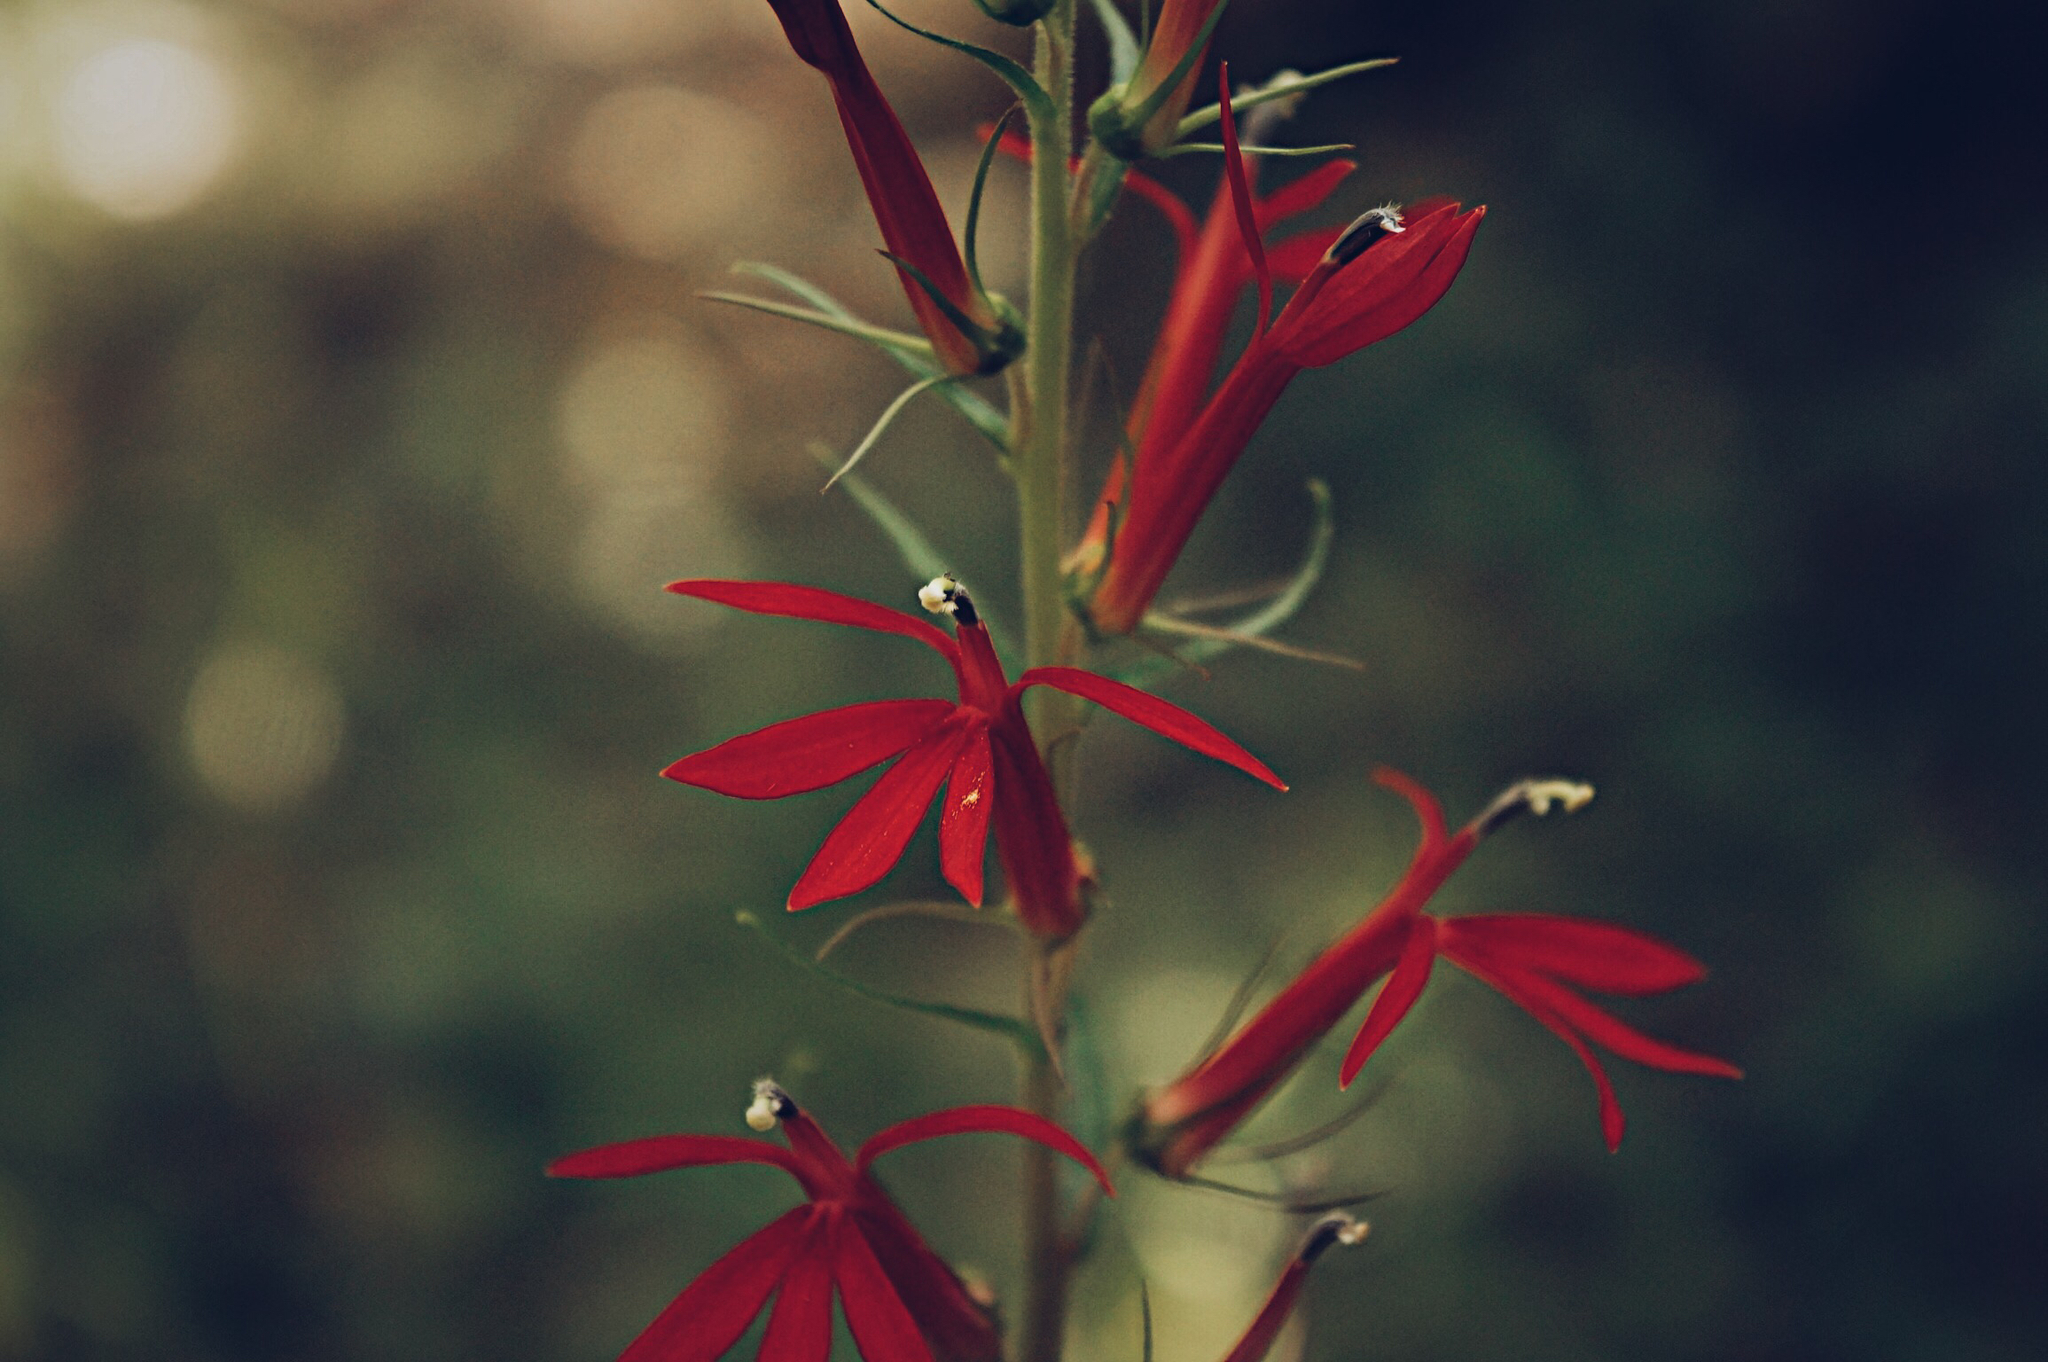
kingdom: Plantae
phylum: Tracheophyta
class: Magnoliopsida
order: Asterales
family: Campanulaceae
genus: Lobelia
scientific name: Lobelia cardinalis
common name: Cardinal flower
